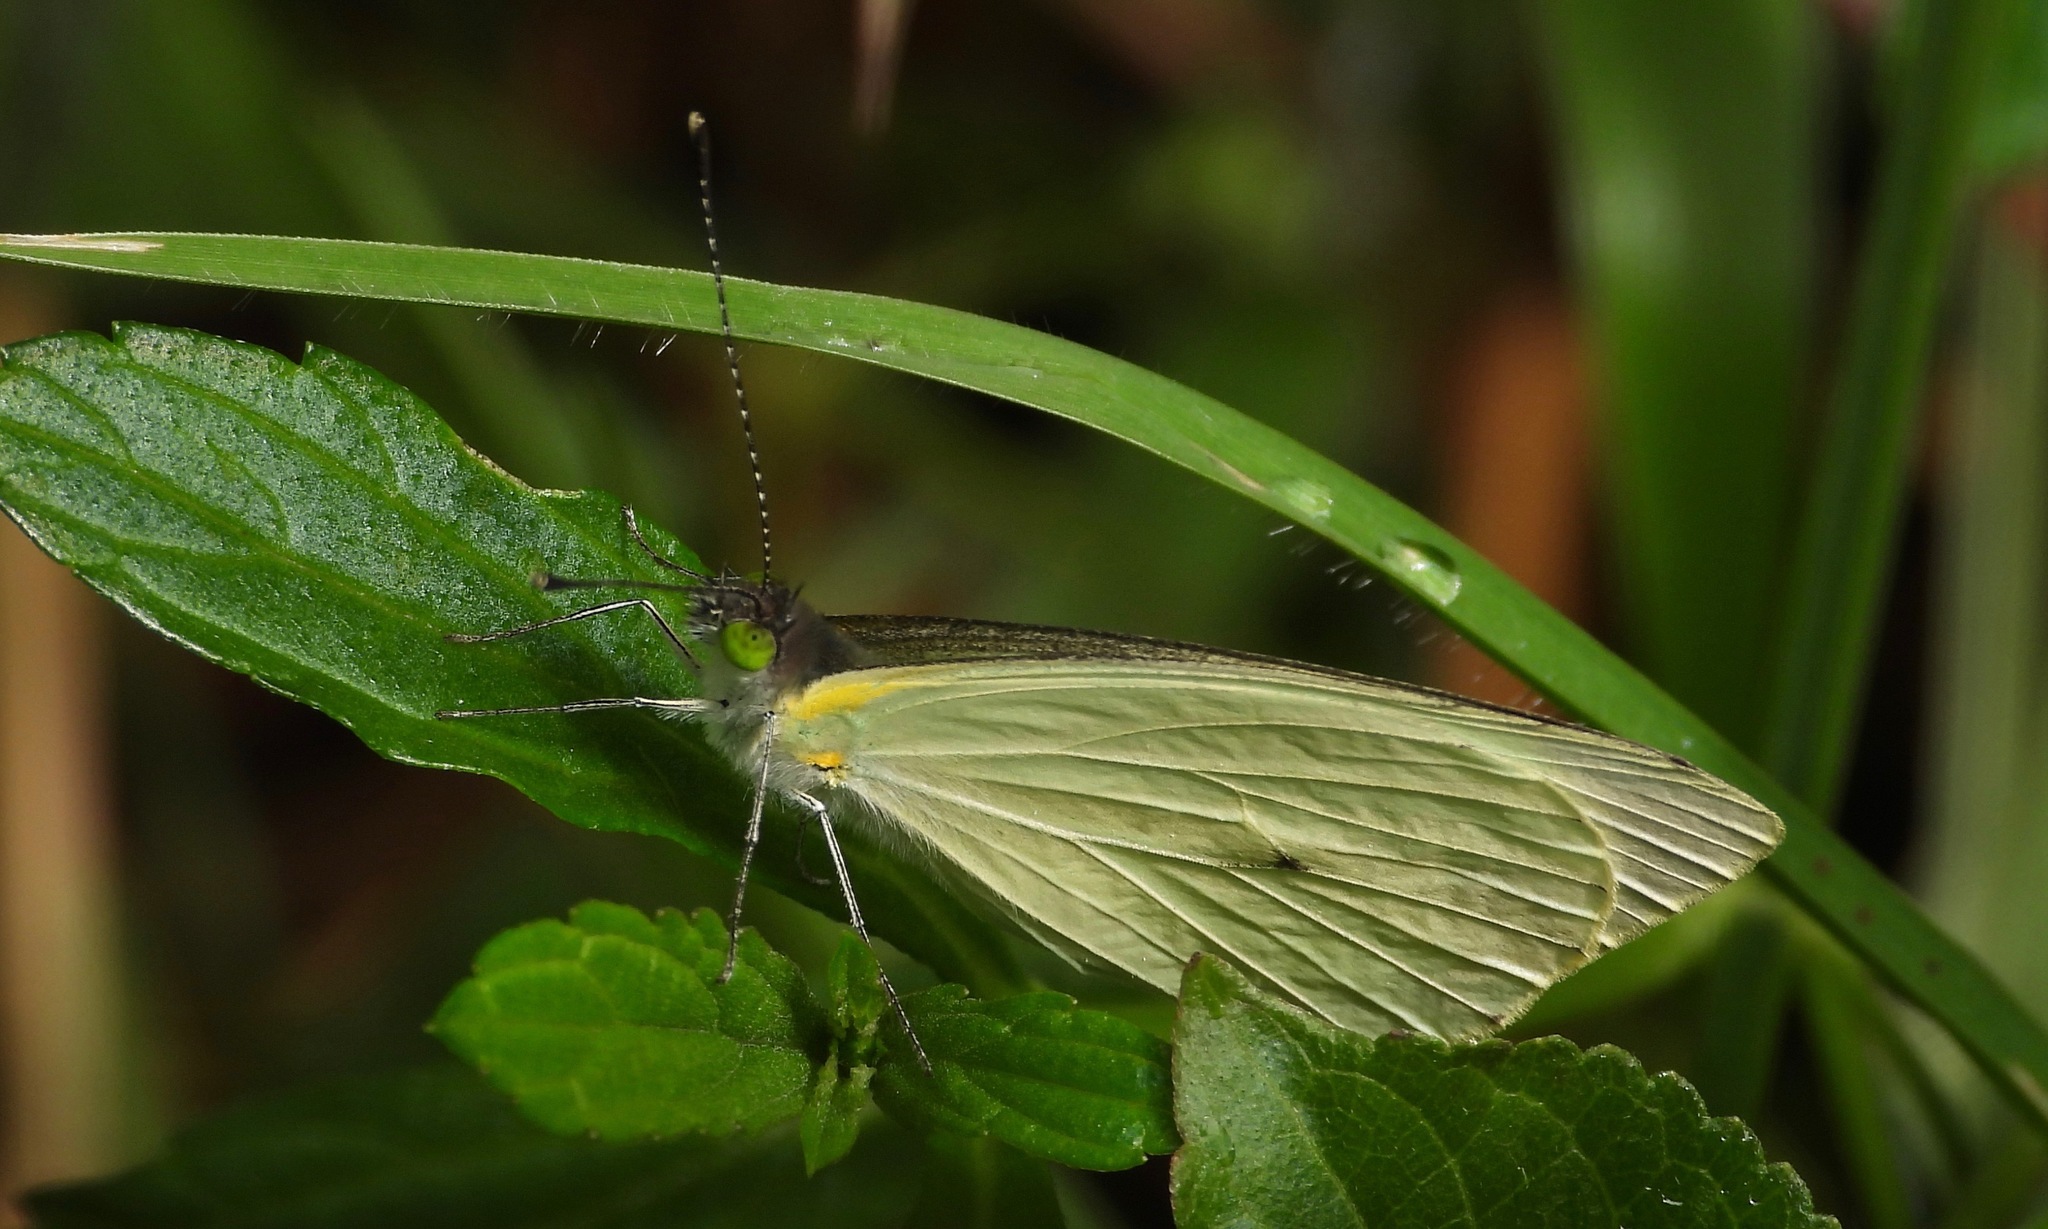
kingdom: Animalia
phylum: Arthropoda
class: Insecta
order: Lepidoptera
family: Pieridae
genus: Leptophobia
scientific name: Leptophobia aripa
